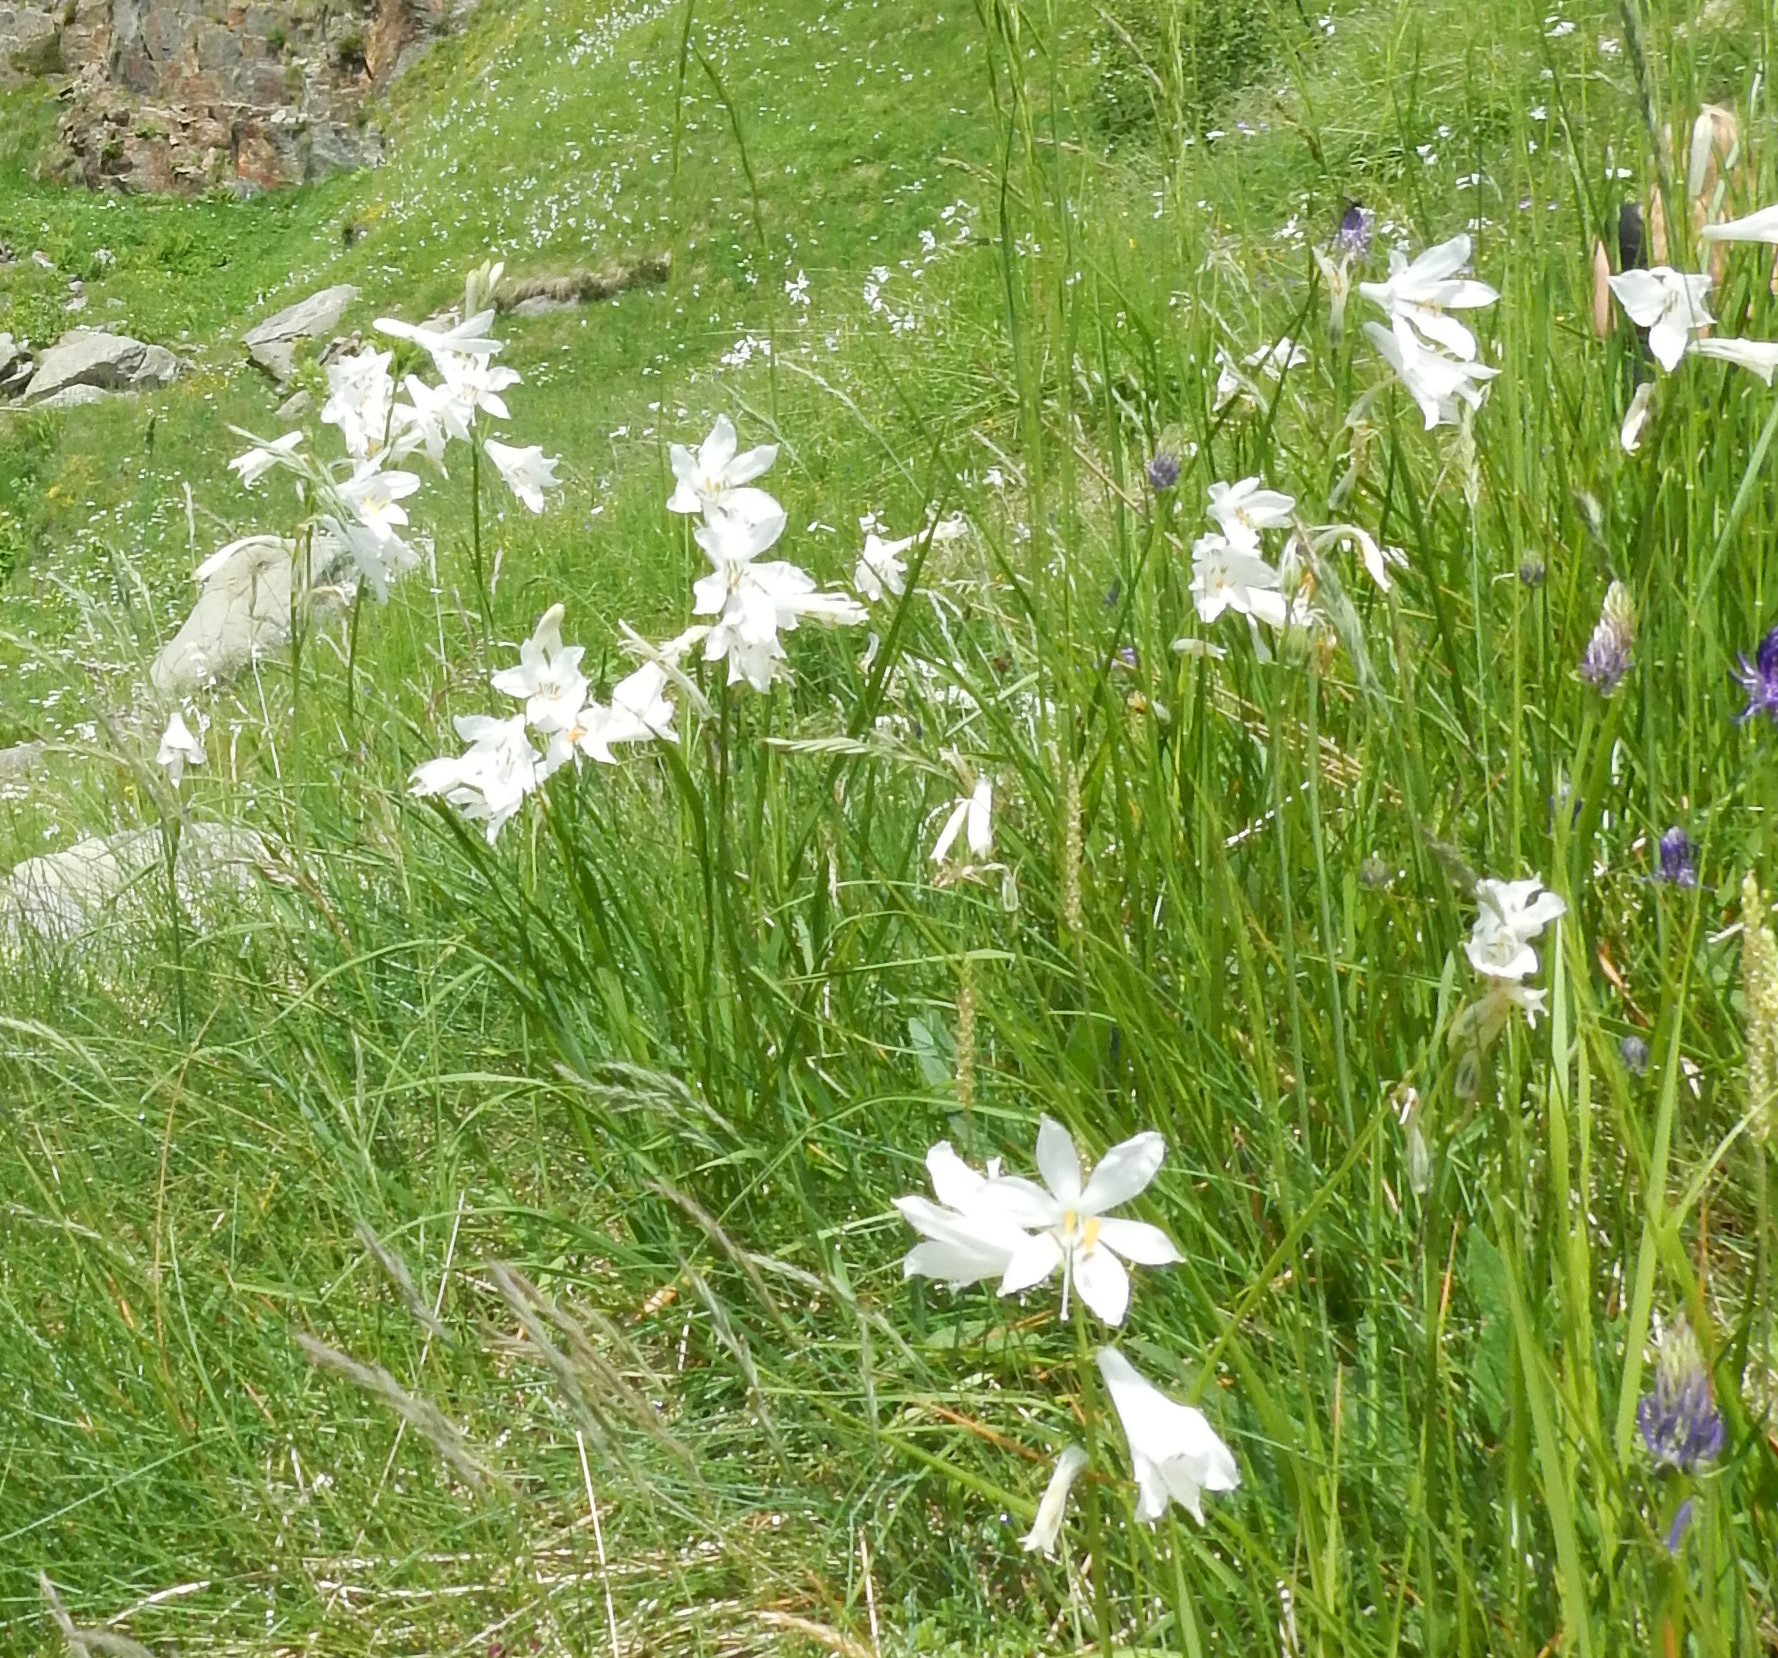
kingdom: Plantae
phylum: Tracheophyta
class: Liliopsida
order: Asparagales
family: Asparagaceae
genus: Paradisea
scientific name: Paradisea liliastrum
